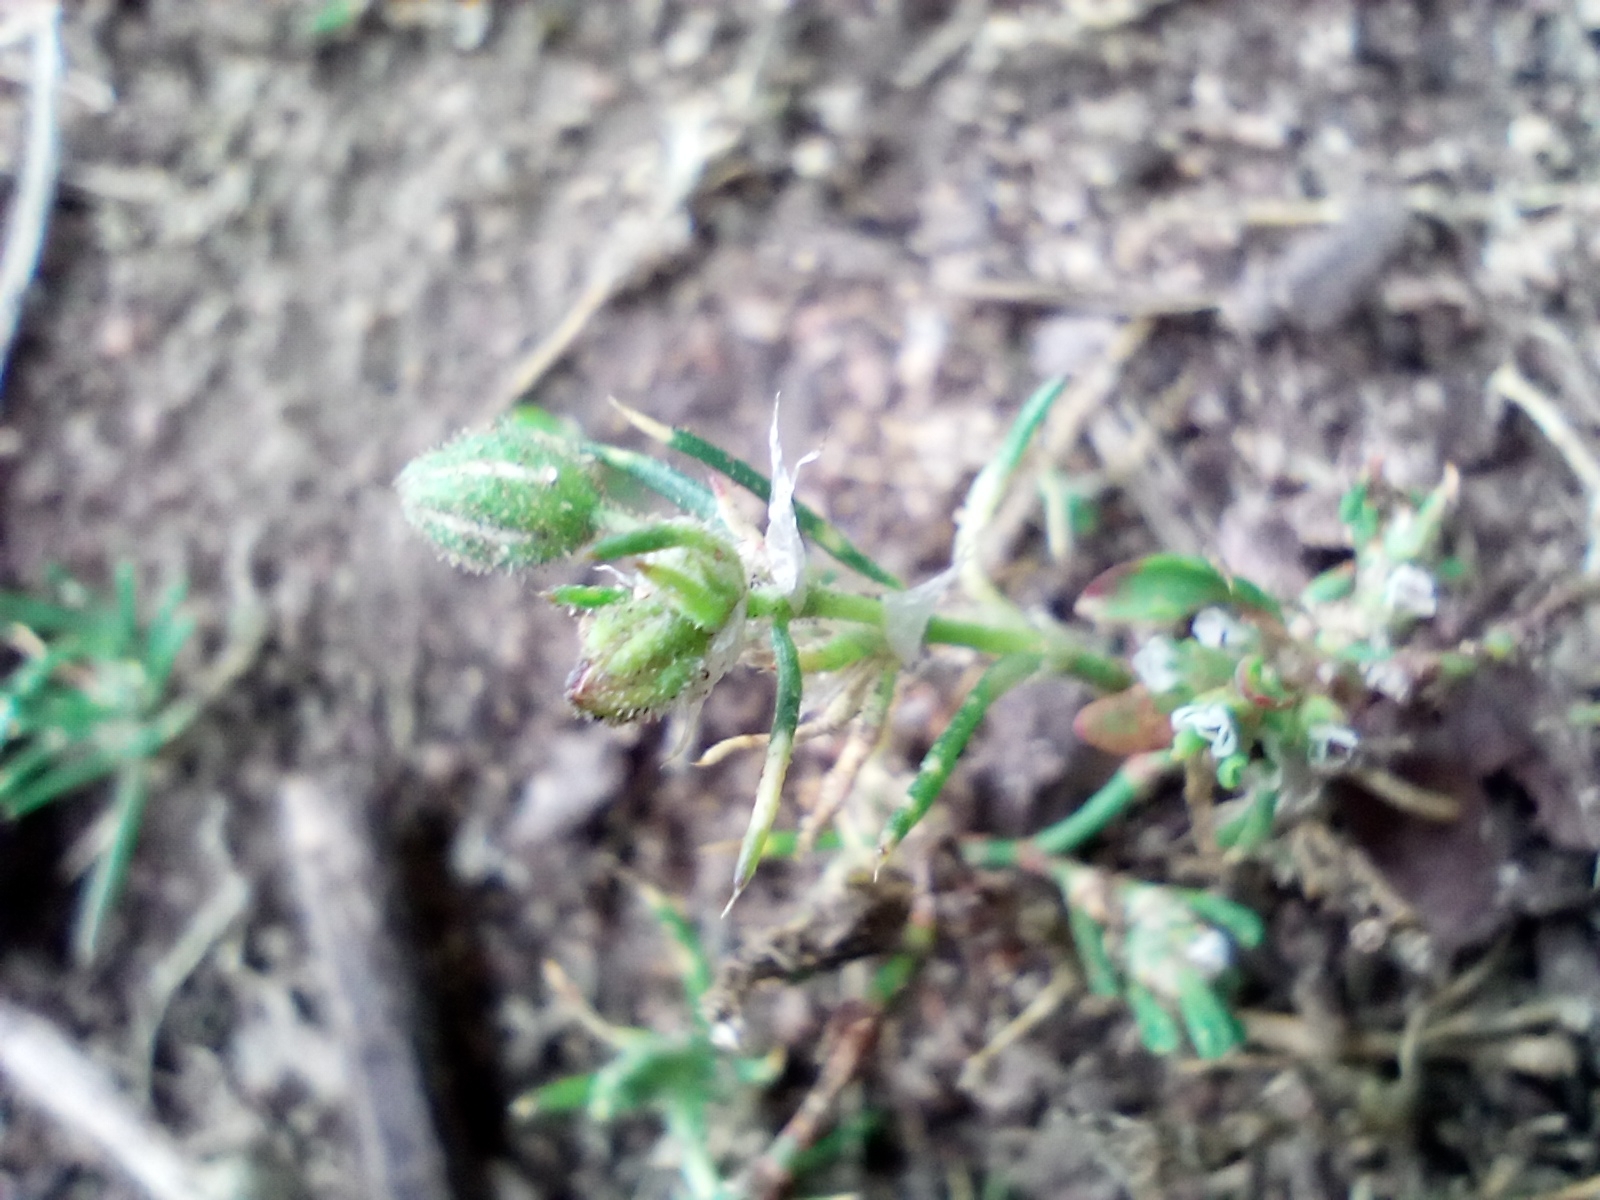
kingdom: Plantae
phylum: Tracheophyta
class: Magnoliopsida
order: Caryophyllales
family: Caryophyllaceae
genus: Spergularia
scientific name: Spergularia rubra
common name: Red sand-spurrey
